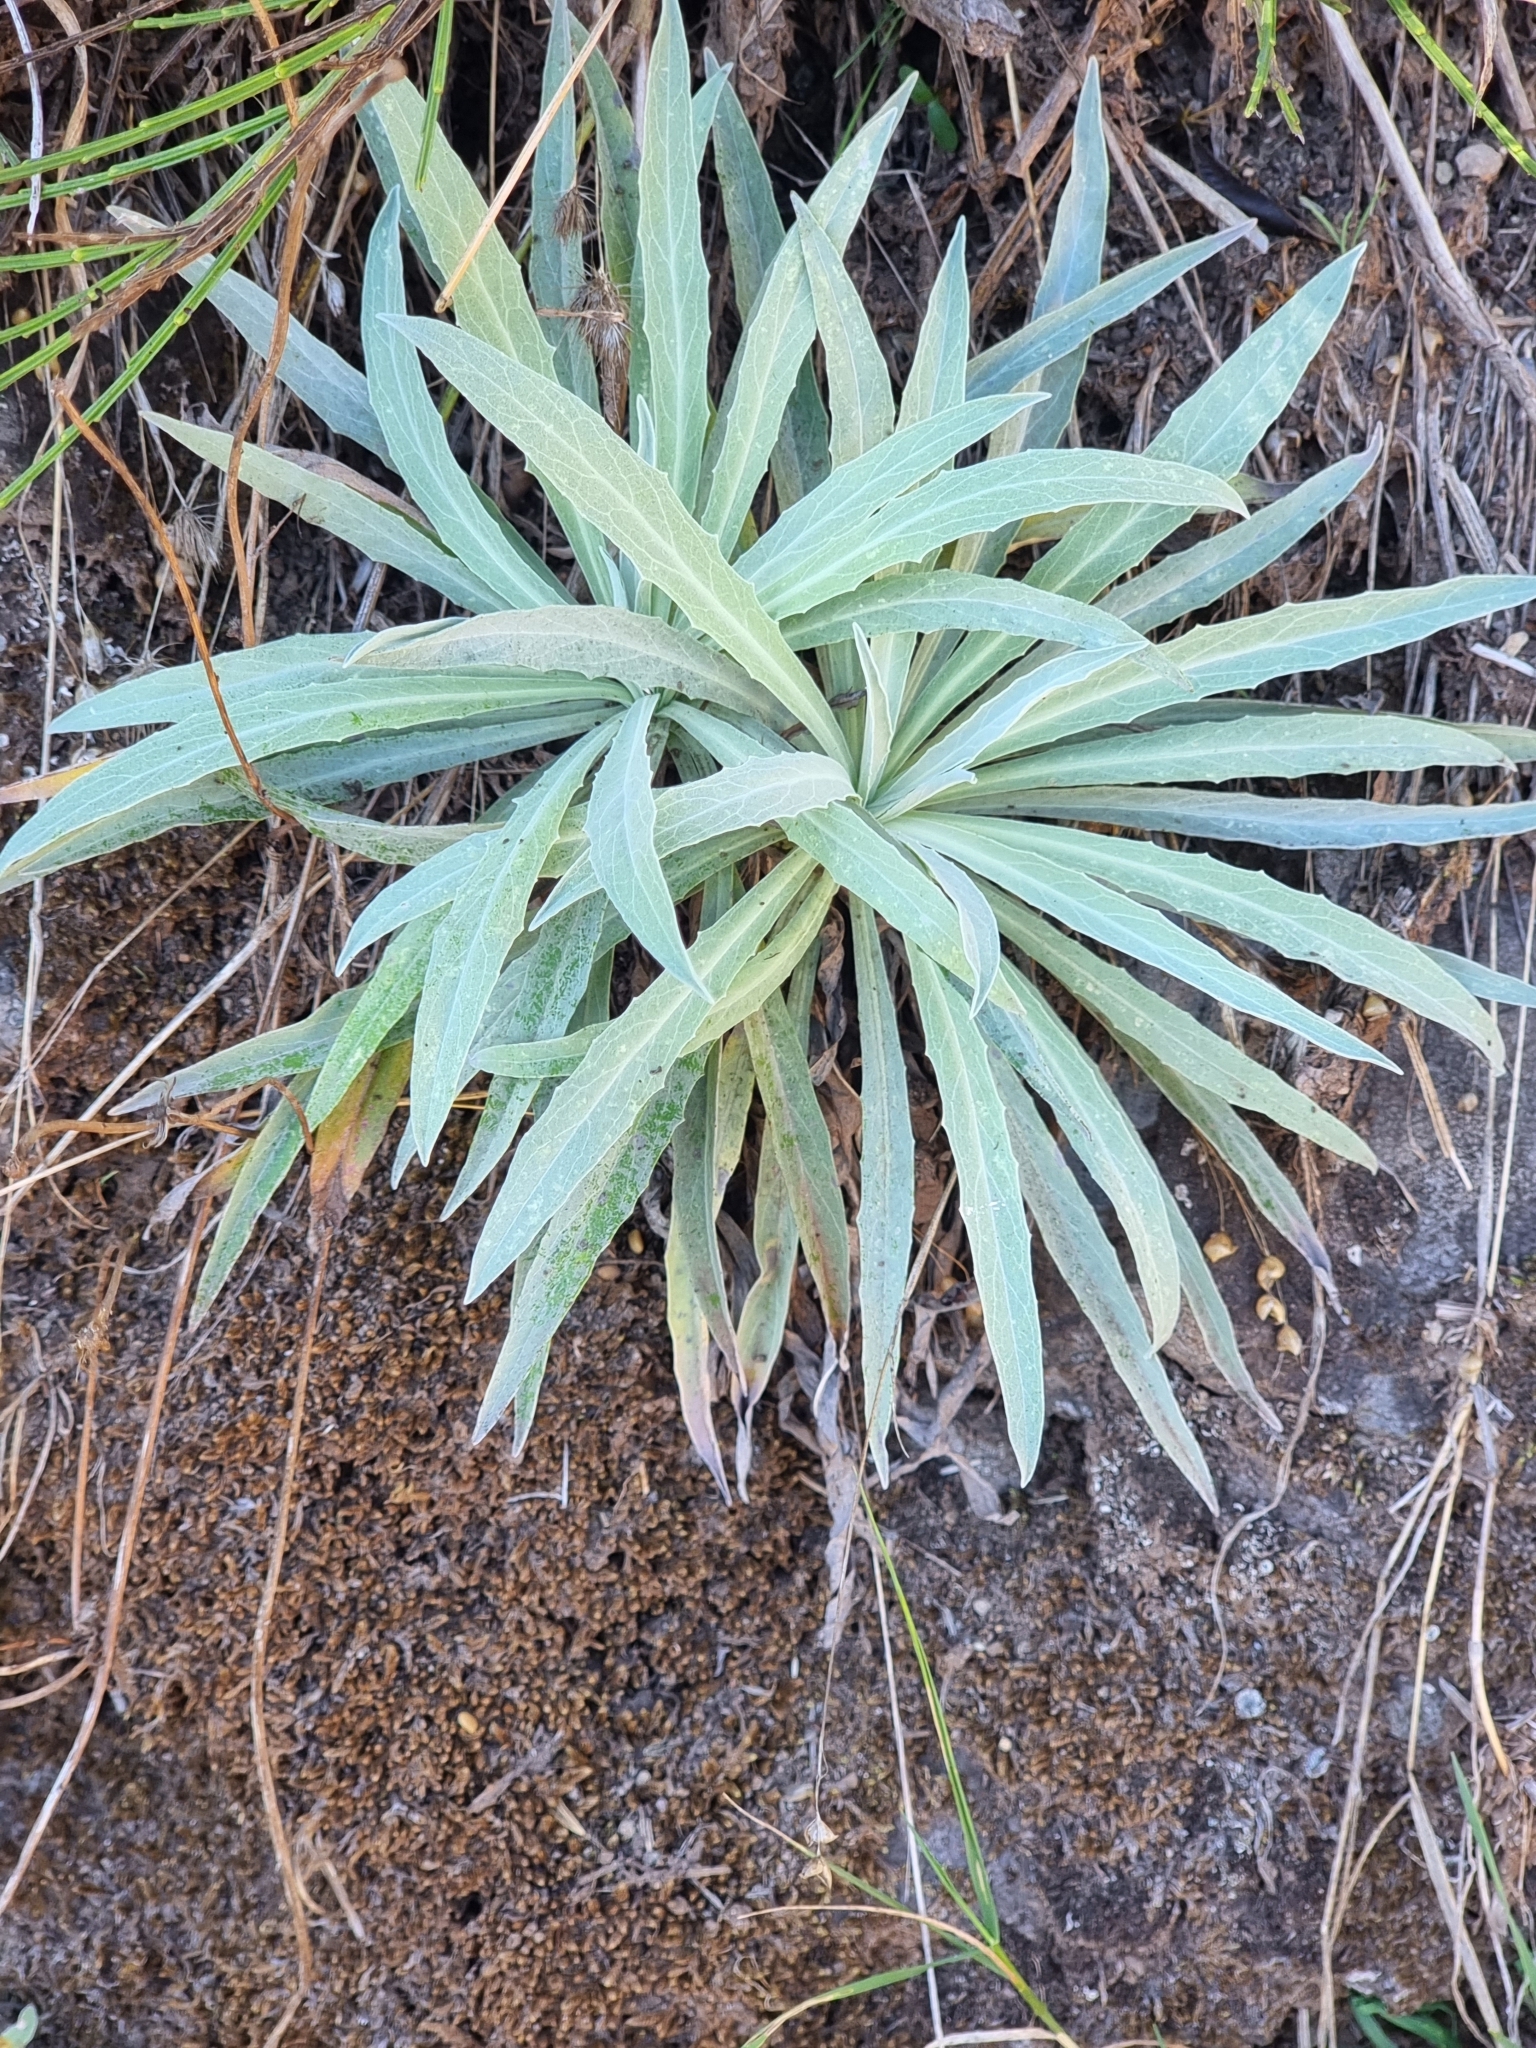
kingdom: Plantae
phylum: Tracheophyta
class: Magnoliopsida
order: Asterales
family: Asteraceae
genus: Andryala
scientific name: Andryala glandulosa
